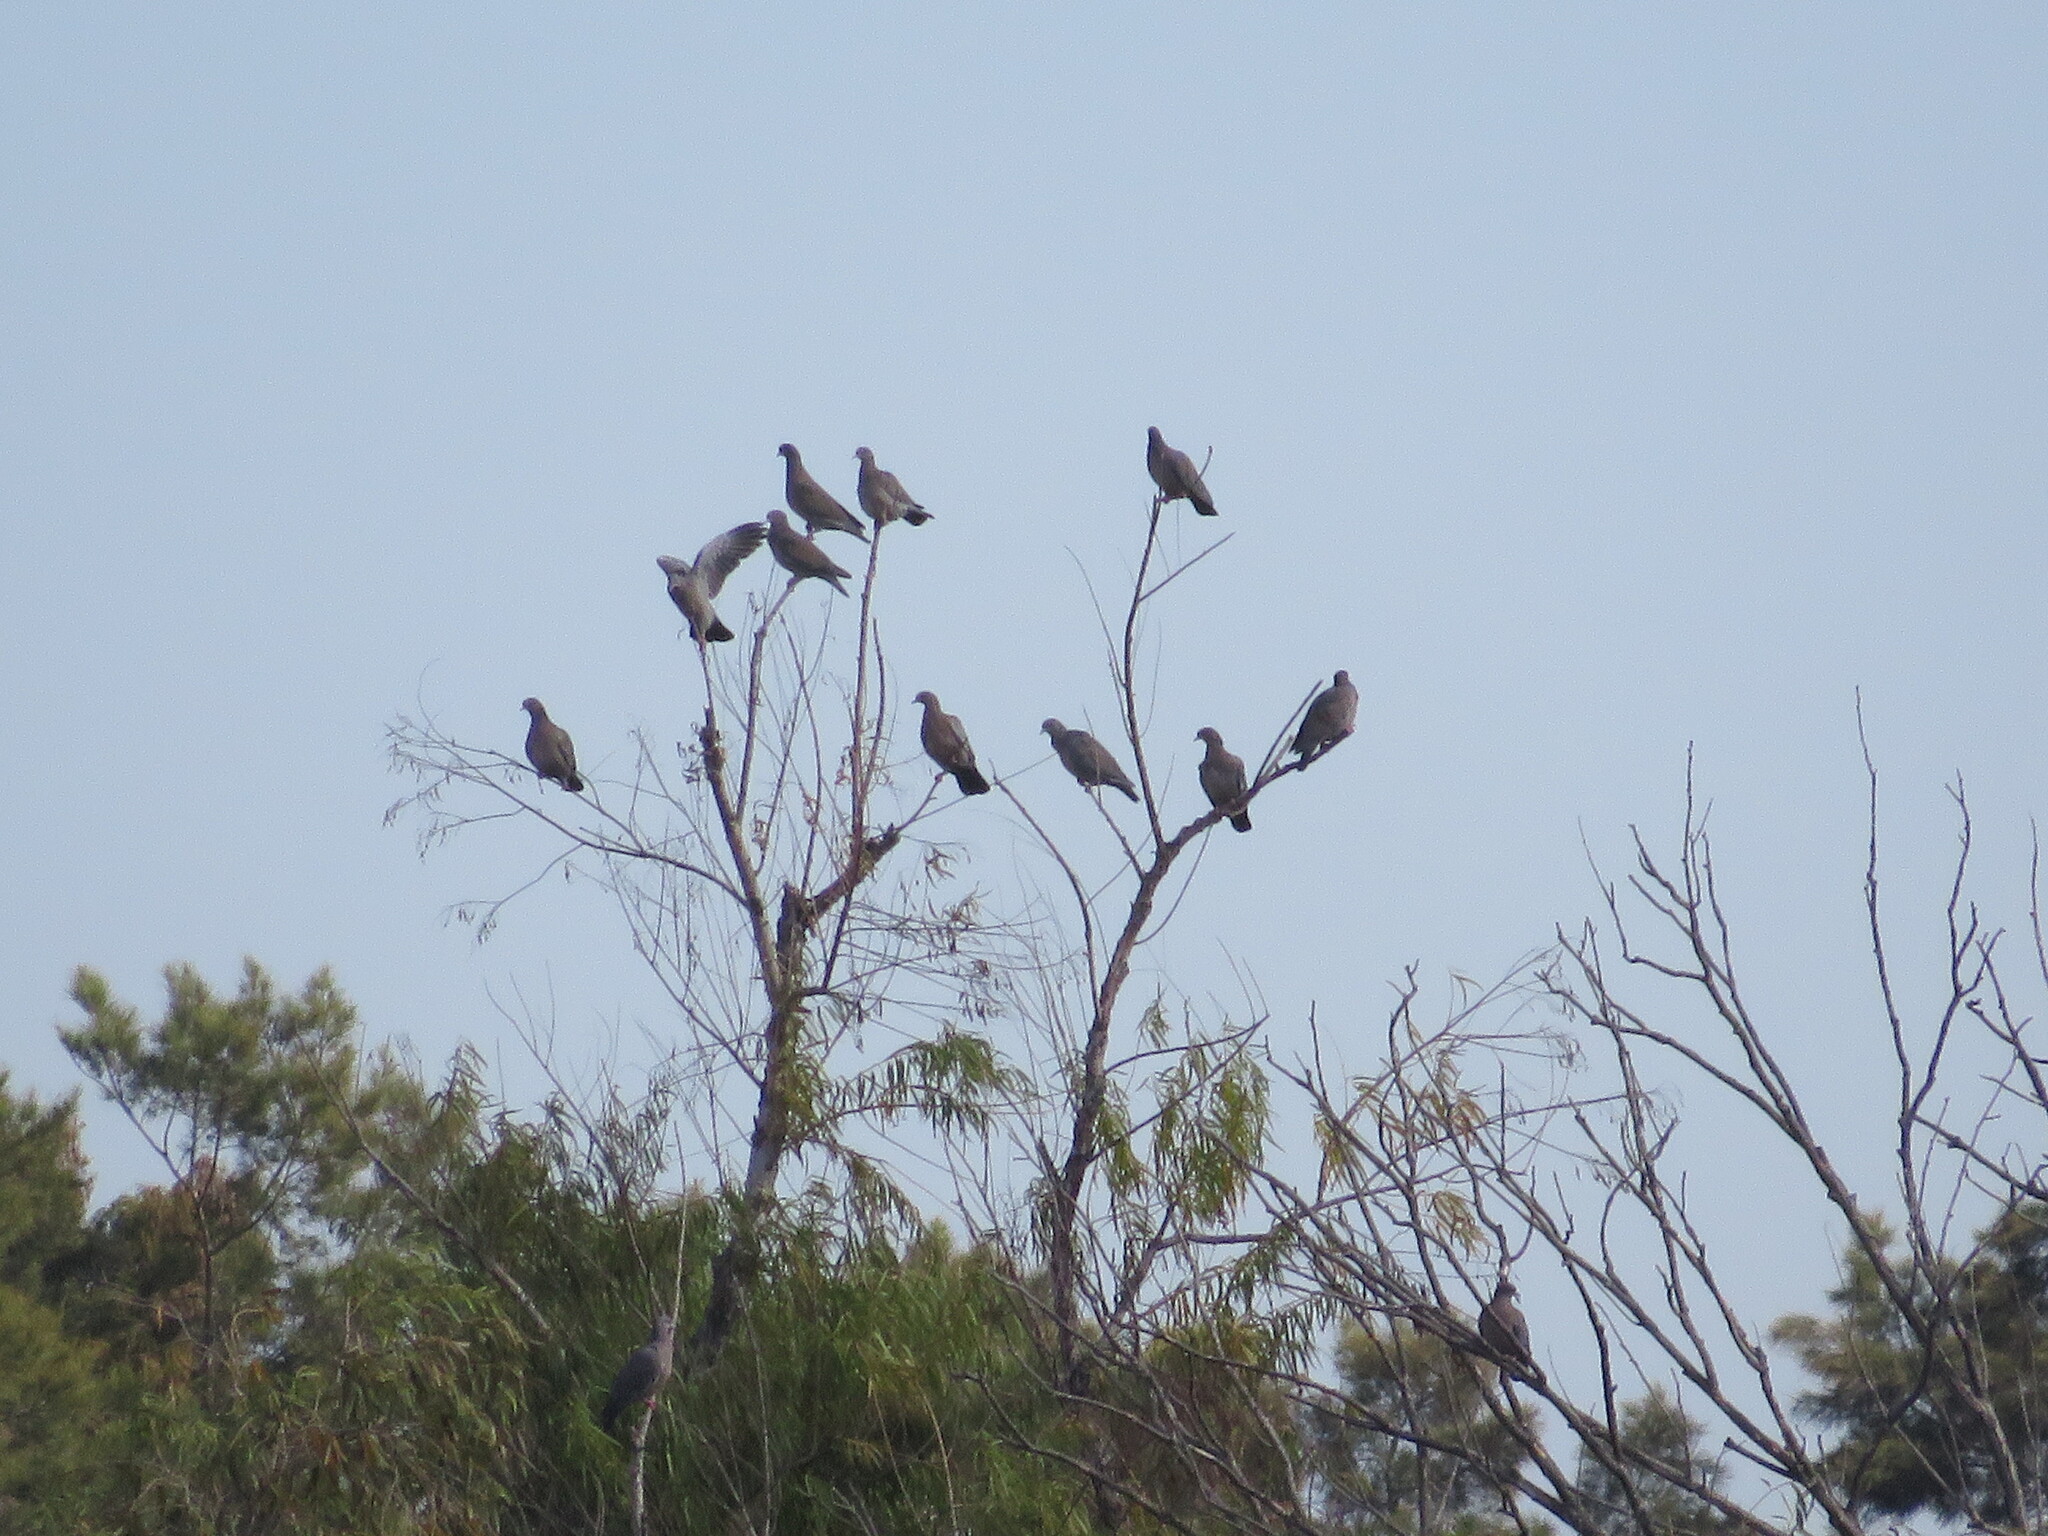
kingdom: Animalia
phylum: Chordata
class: Aves
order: Columbiformes
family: Columbidae
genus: Patagioenas
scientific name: Patagioenas picazuro
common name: Picazuro pigeon
